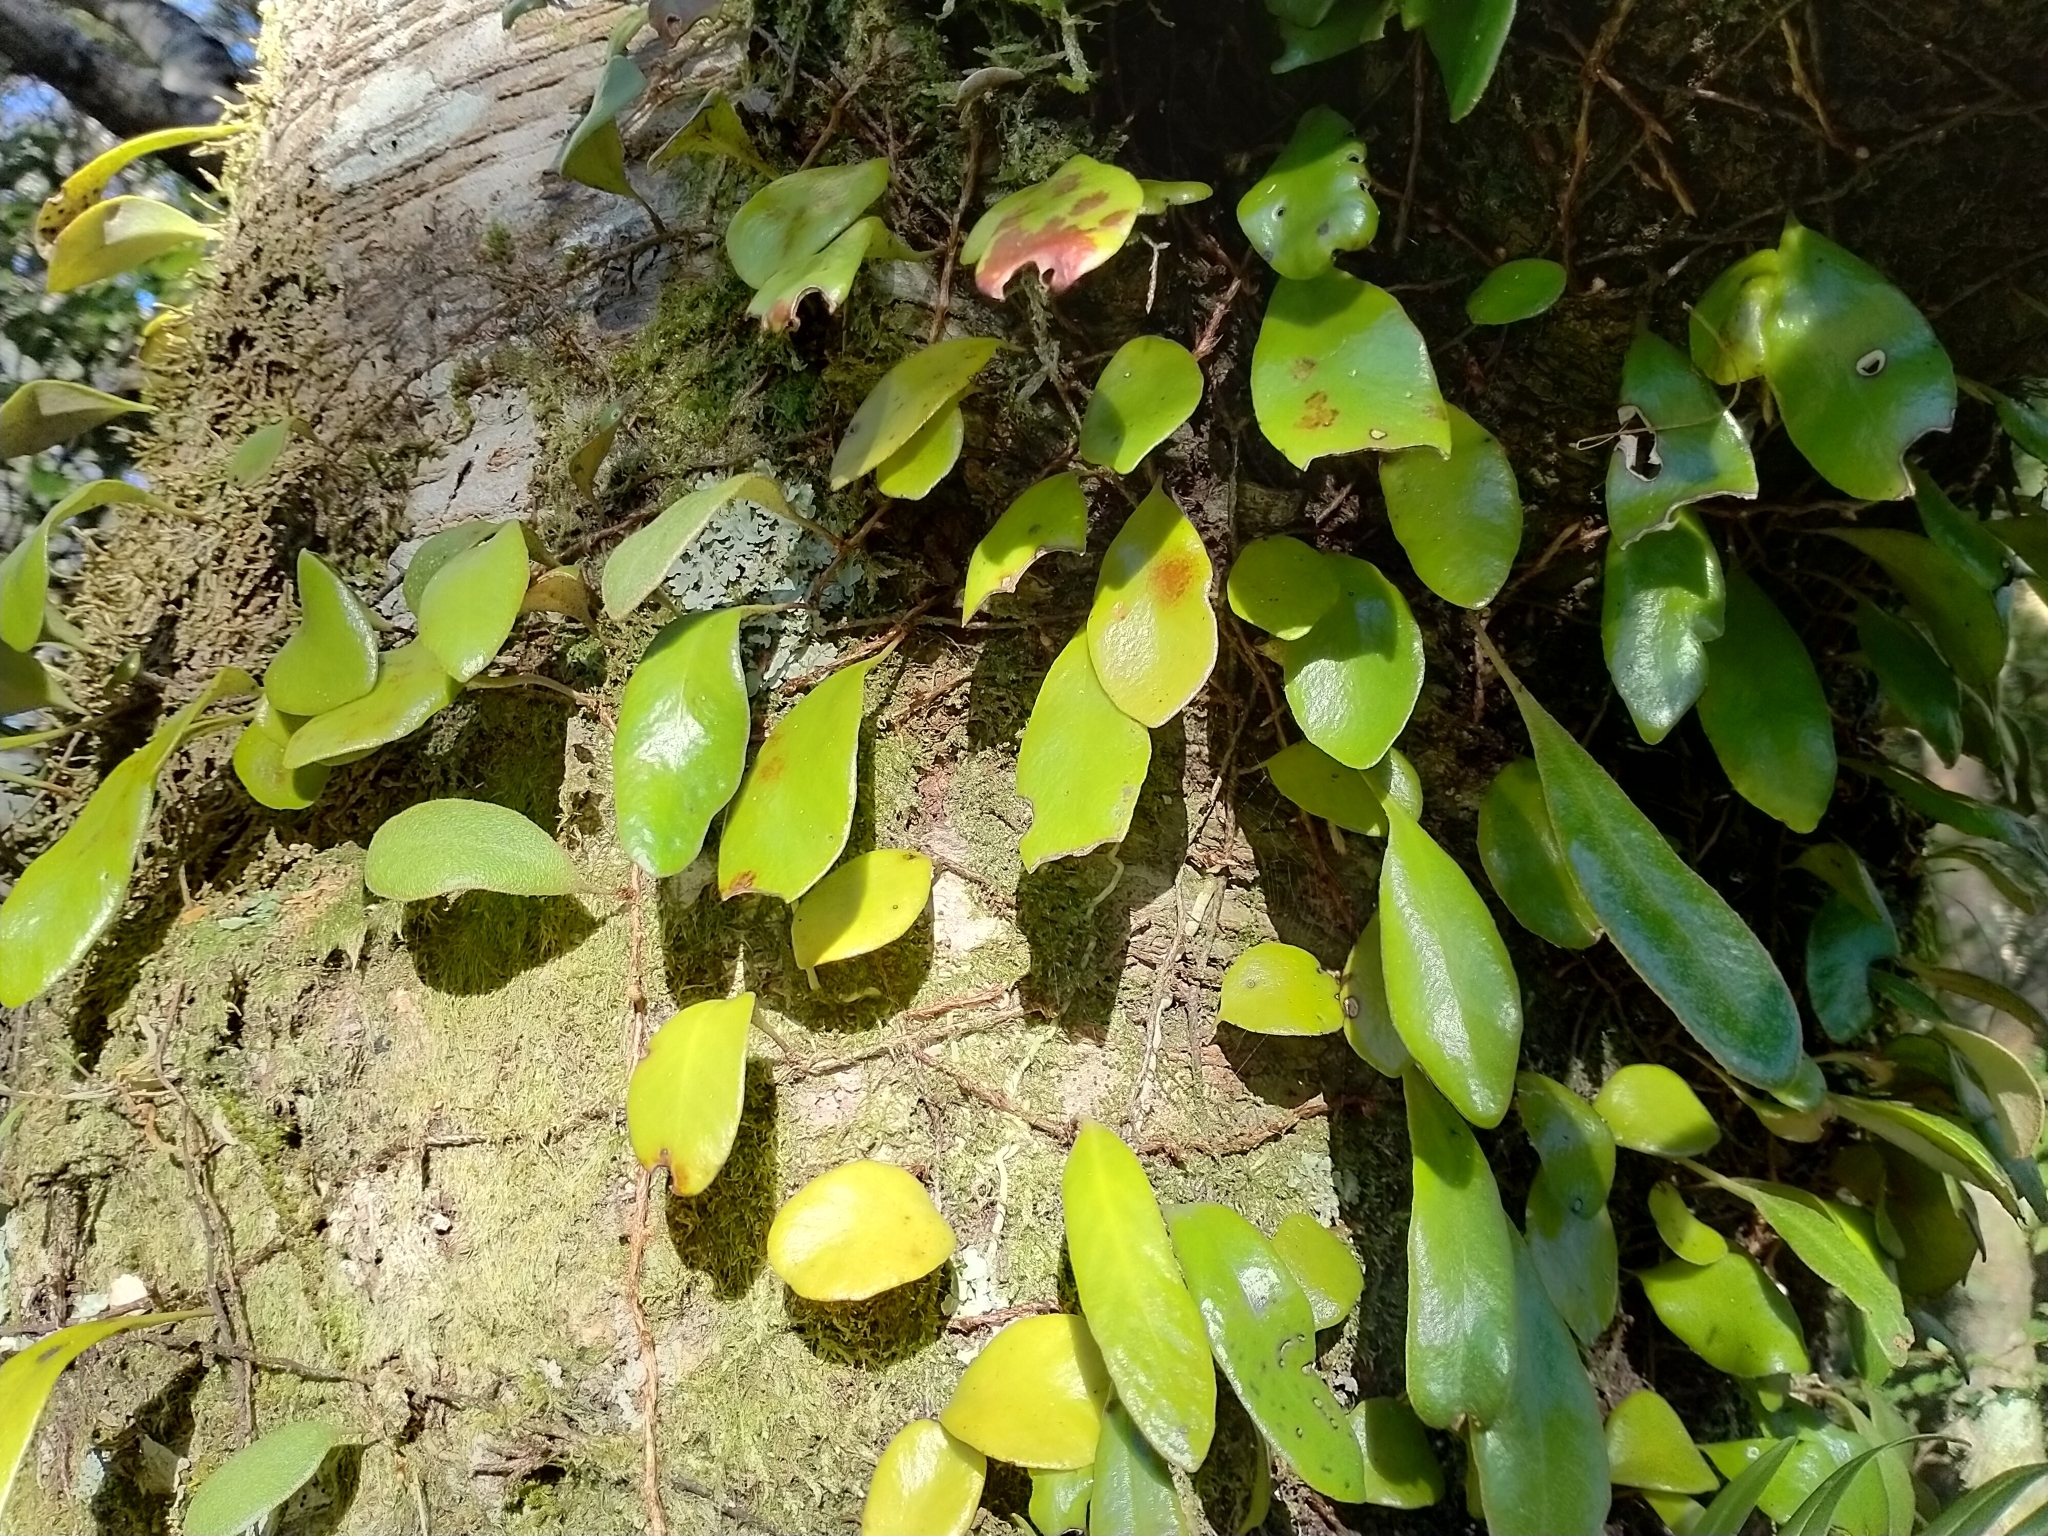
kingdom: Plantae
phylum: Tracheophyta
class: Polypodiopsida
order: Polypodiales
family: Polypodiaceae
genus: Pyrrosia
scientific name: Pyrrosia eleagnifolia
